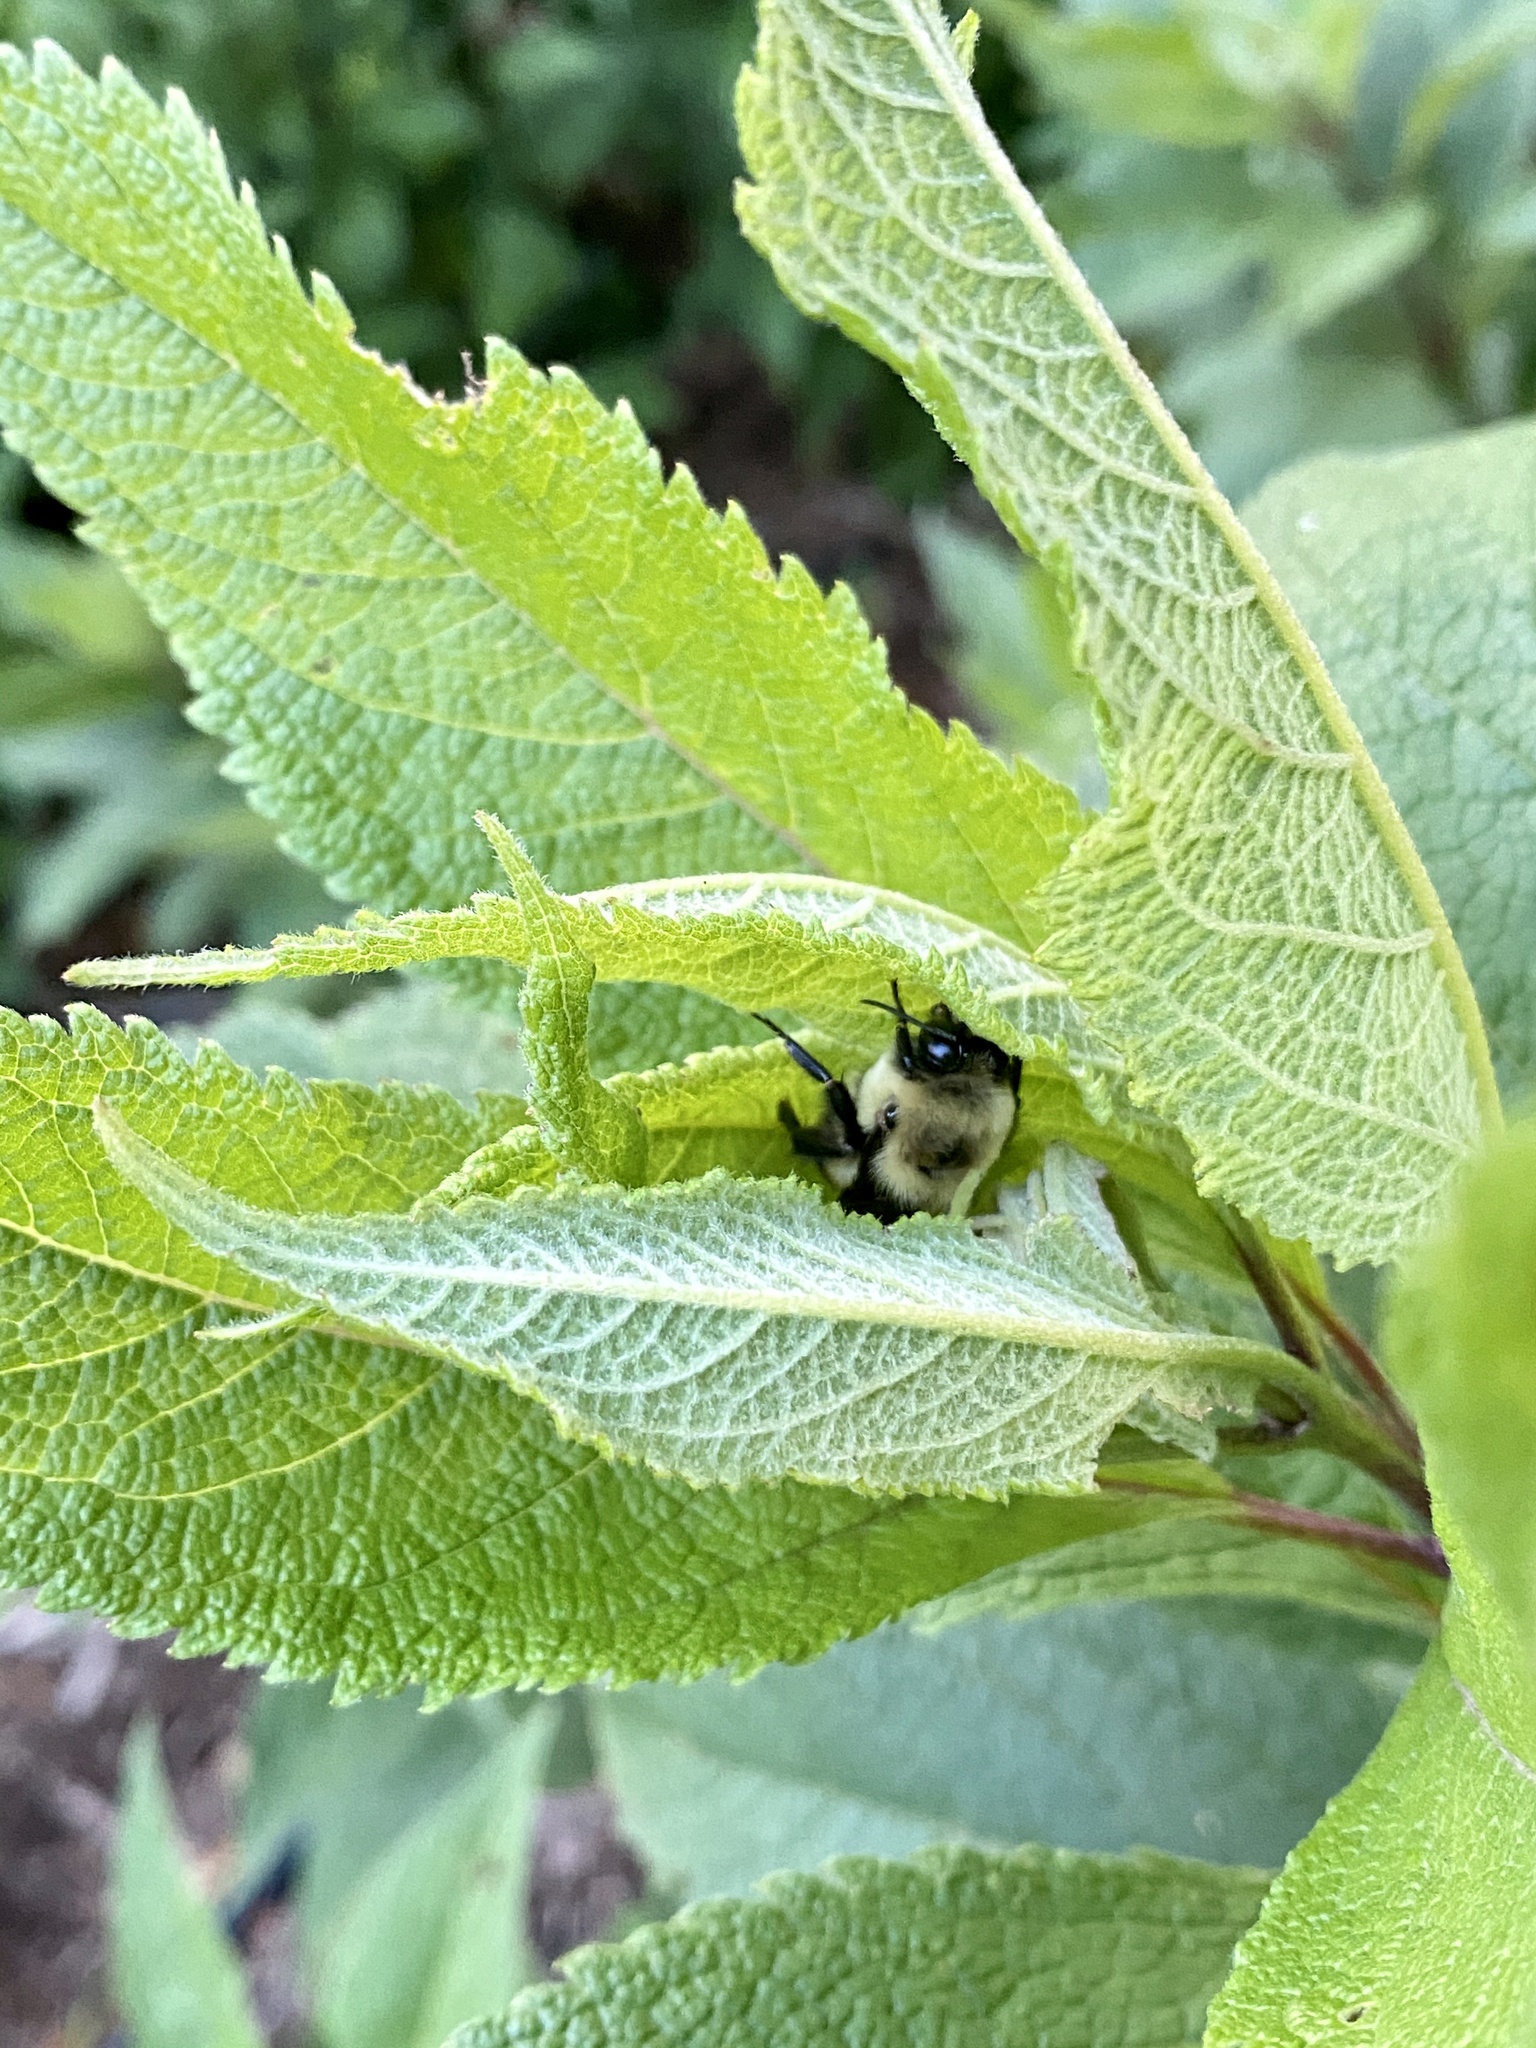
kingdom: Animalia
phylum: Arthropoda
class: Insecta
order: Hymenoptera
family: Apidae
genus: Bombus
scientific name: Bombus griseocollis
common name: Brown-belted bumble bee
